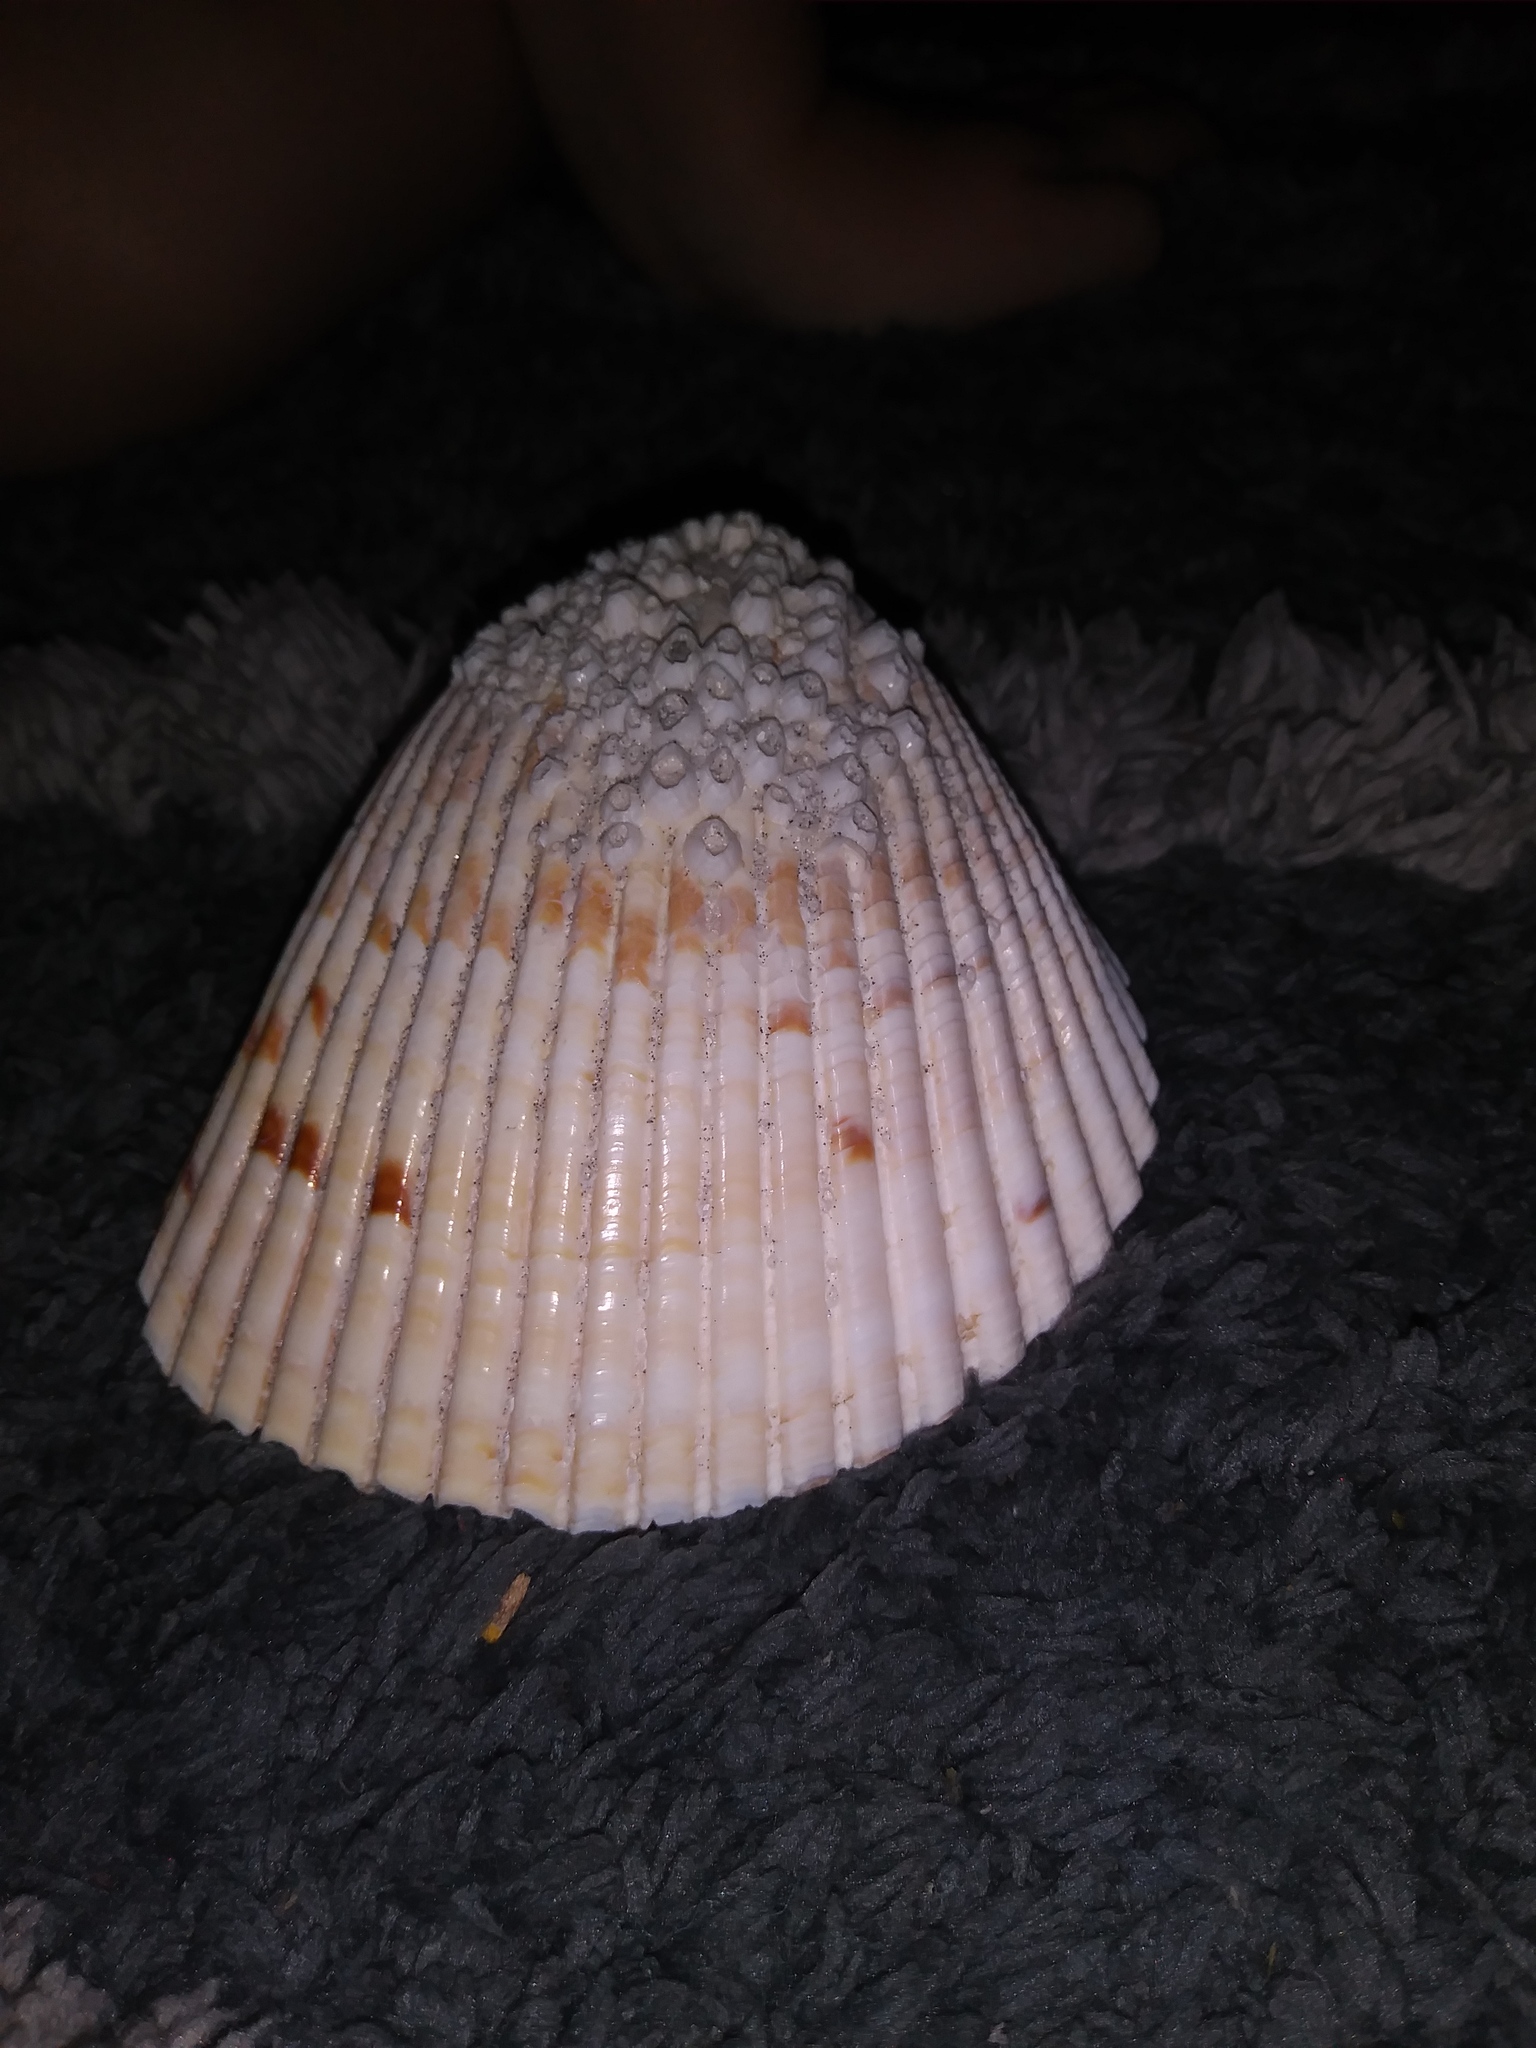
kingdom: Animalia
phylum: Mollusca
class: Bivalvia
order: Cardiida
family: Cardiidae
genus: Dinocardium
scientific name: Dinocardium robustum
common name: Atlantic giant cockle
